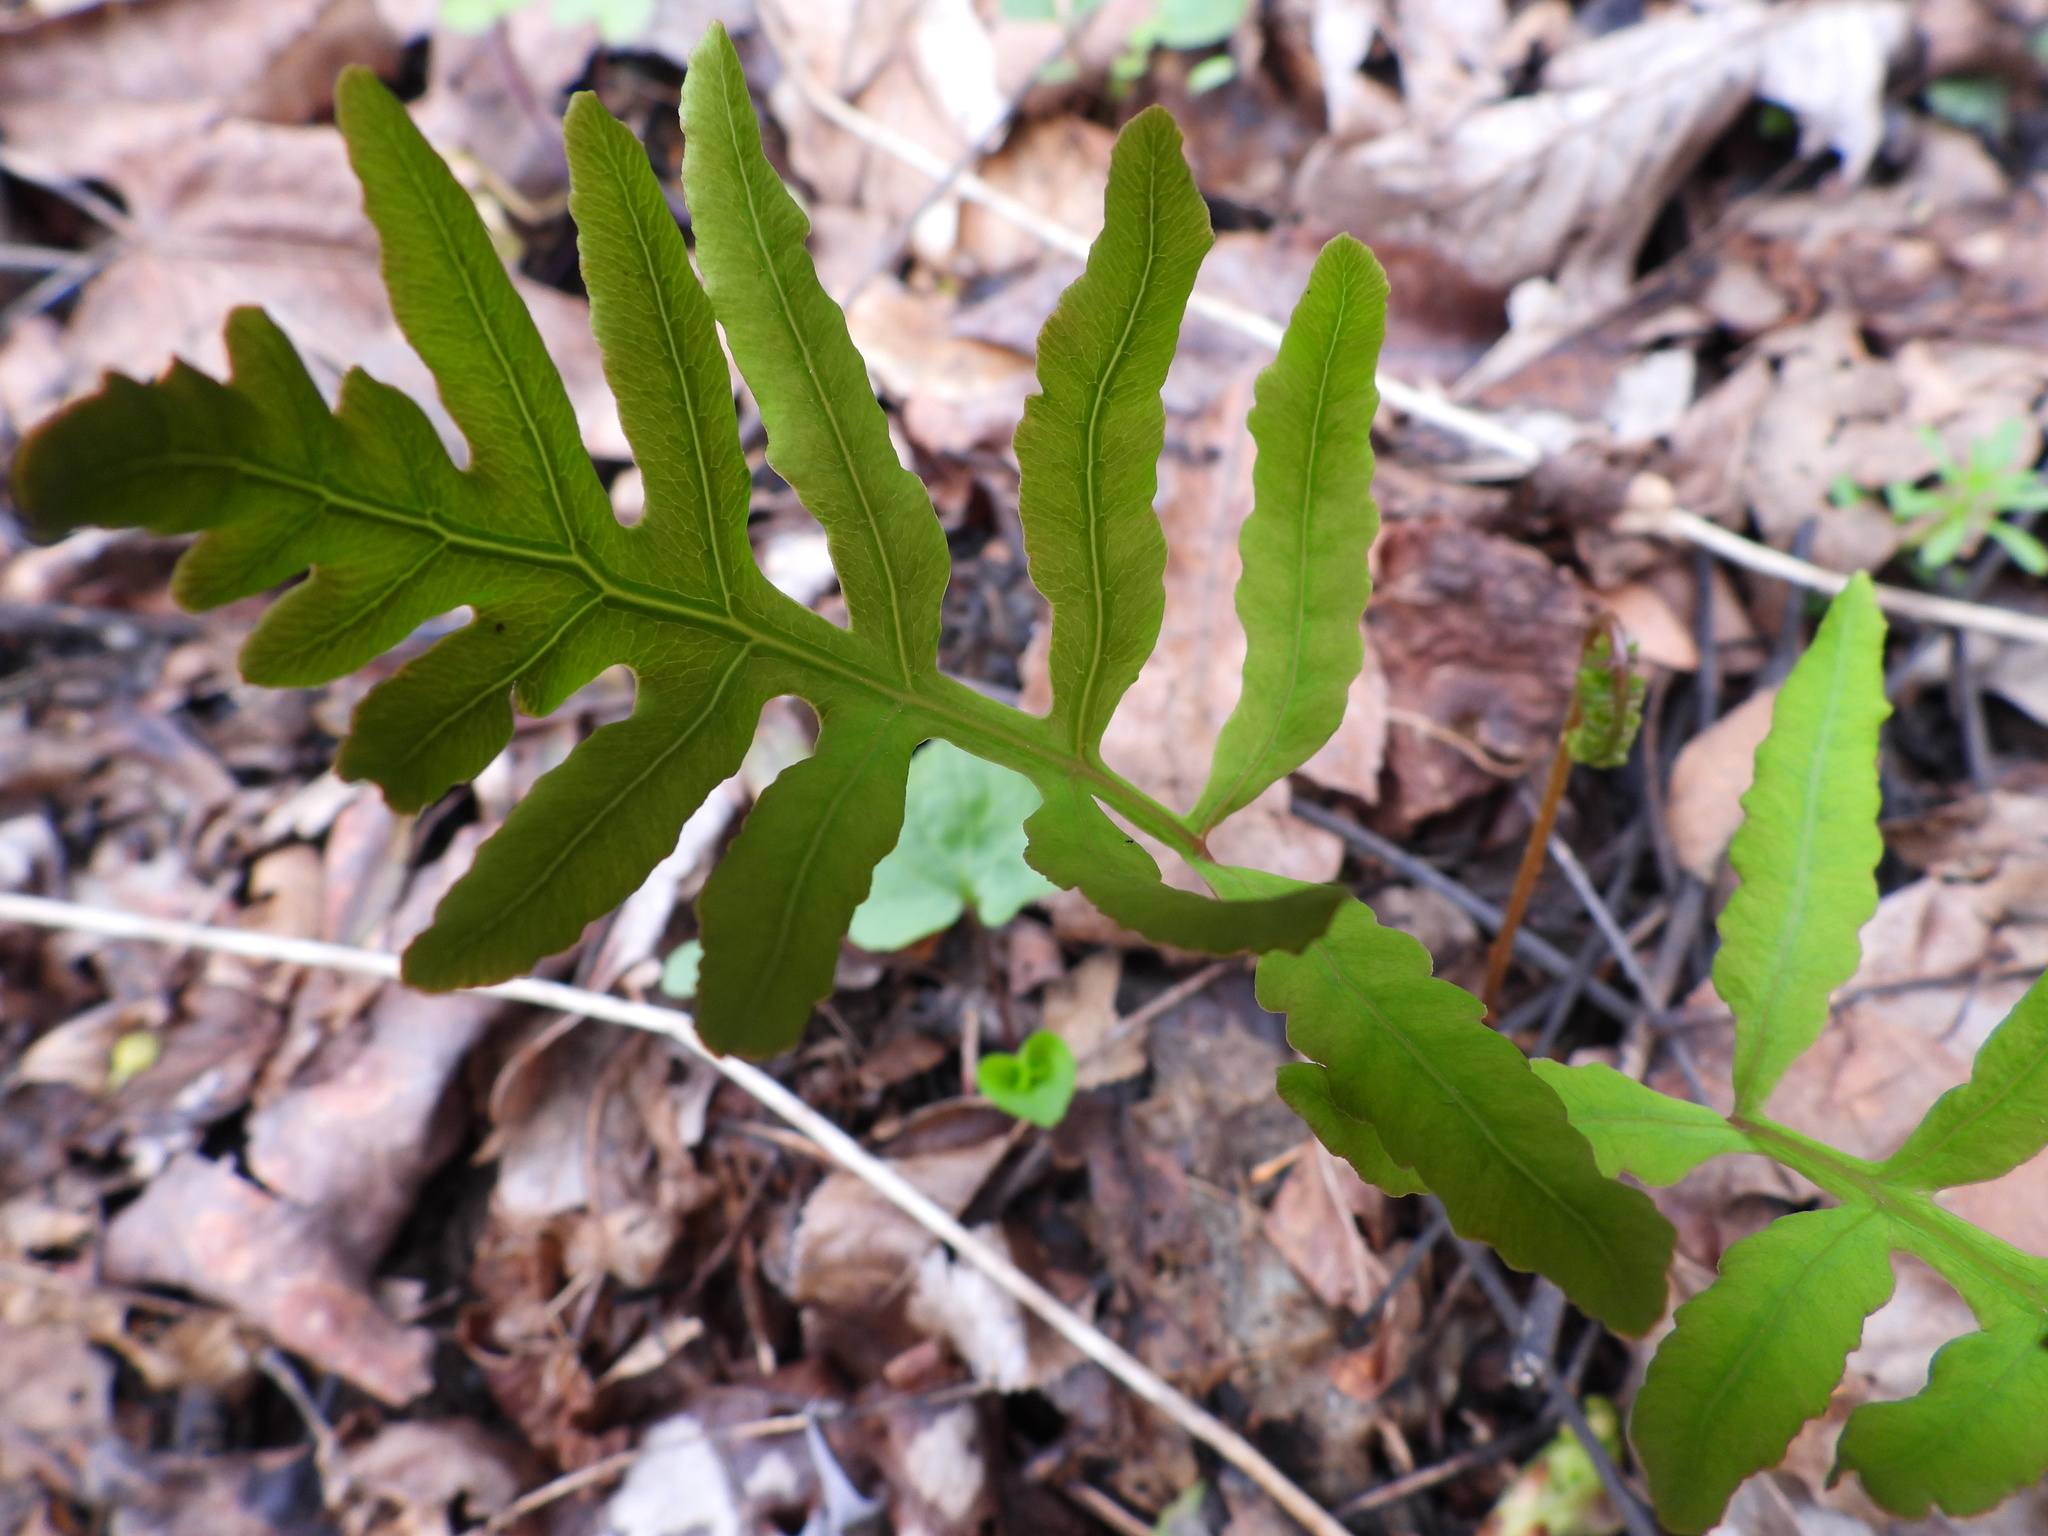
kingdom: Plantae
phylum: Tracheophyta
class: Polypodiopsida
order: Polypodiales
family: Onocleaceae
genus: Onoclea
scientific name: Onoclea sensibilis
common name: Sensitive fern
